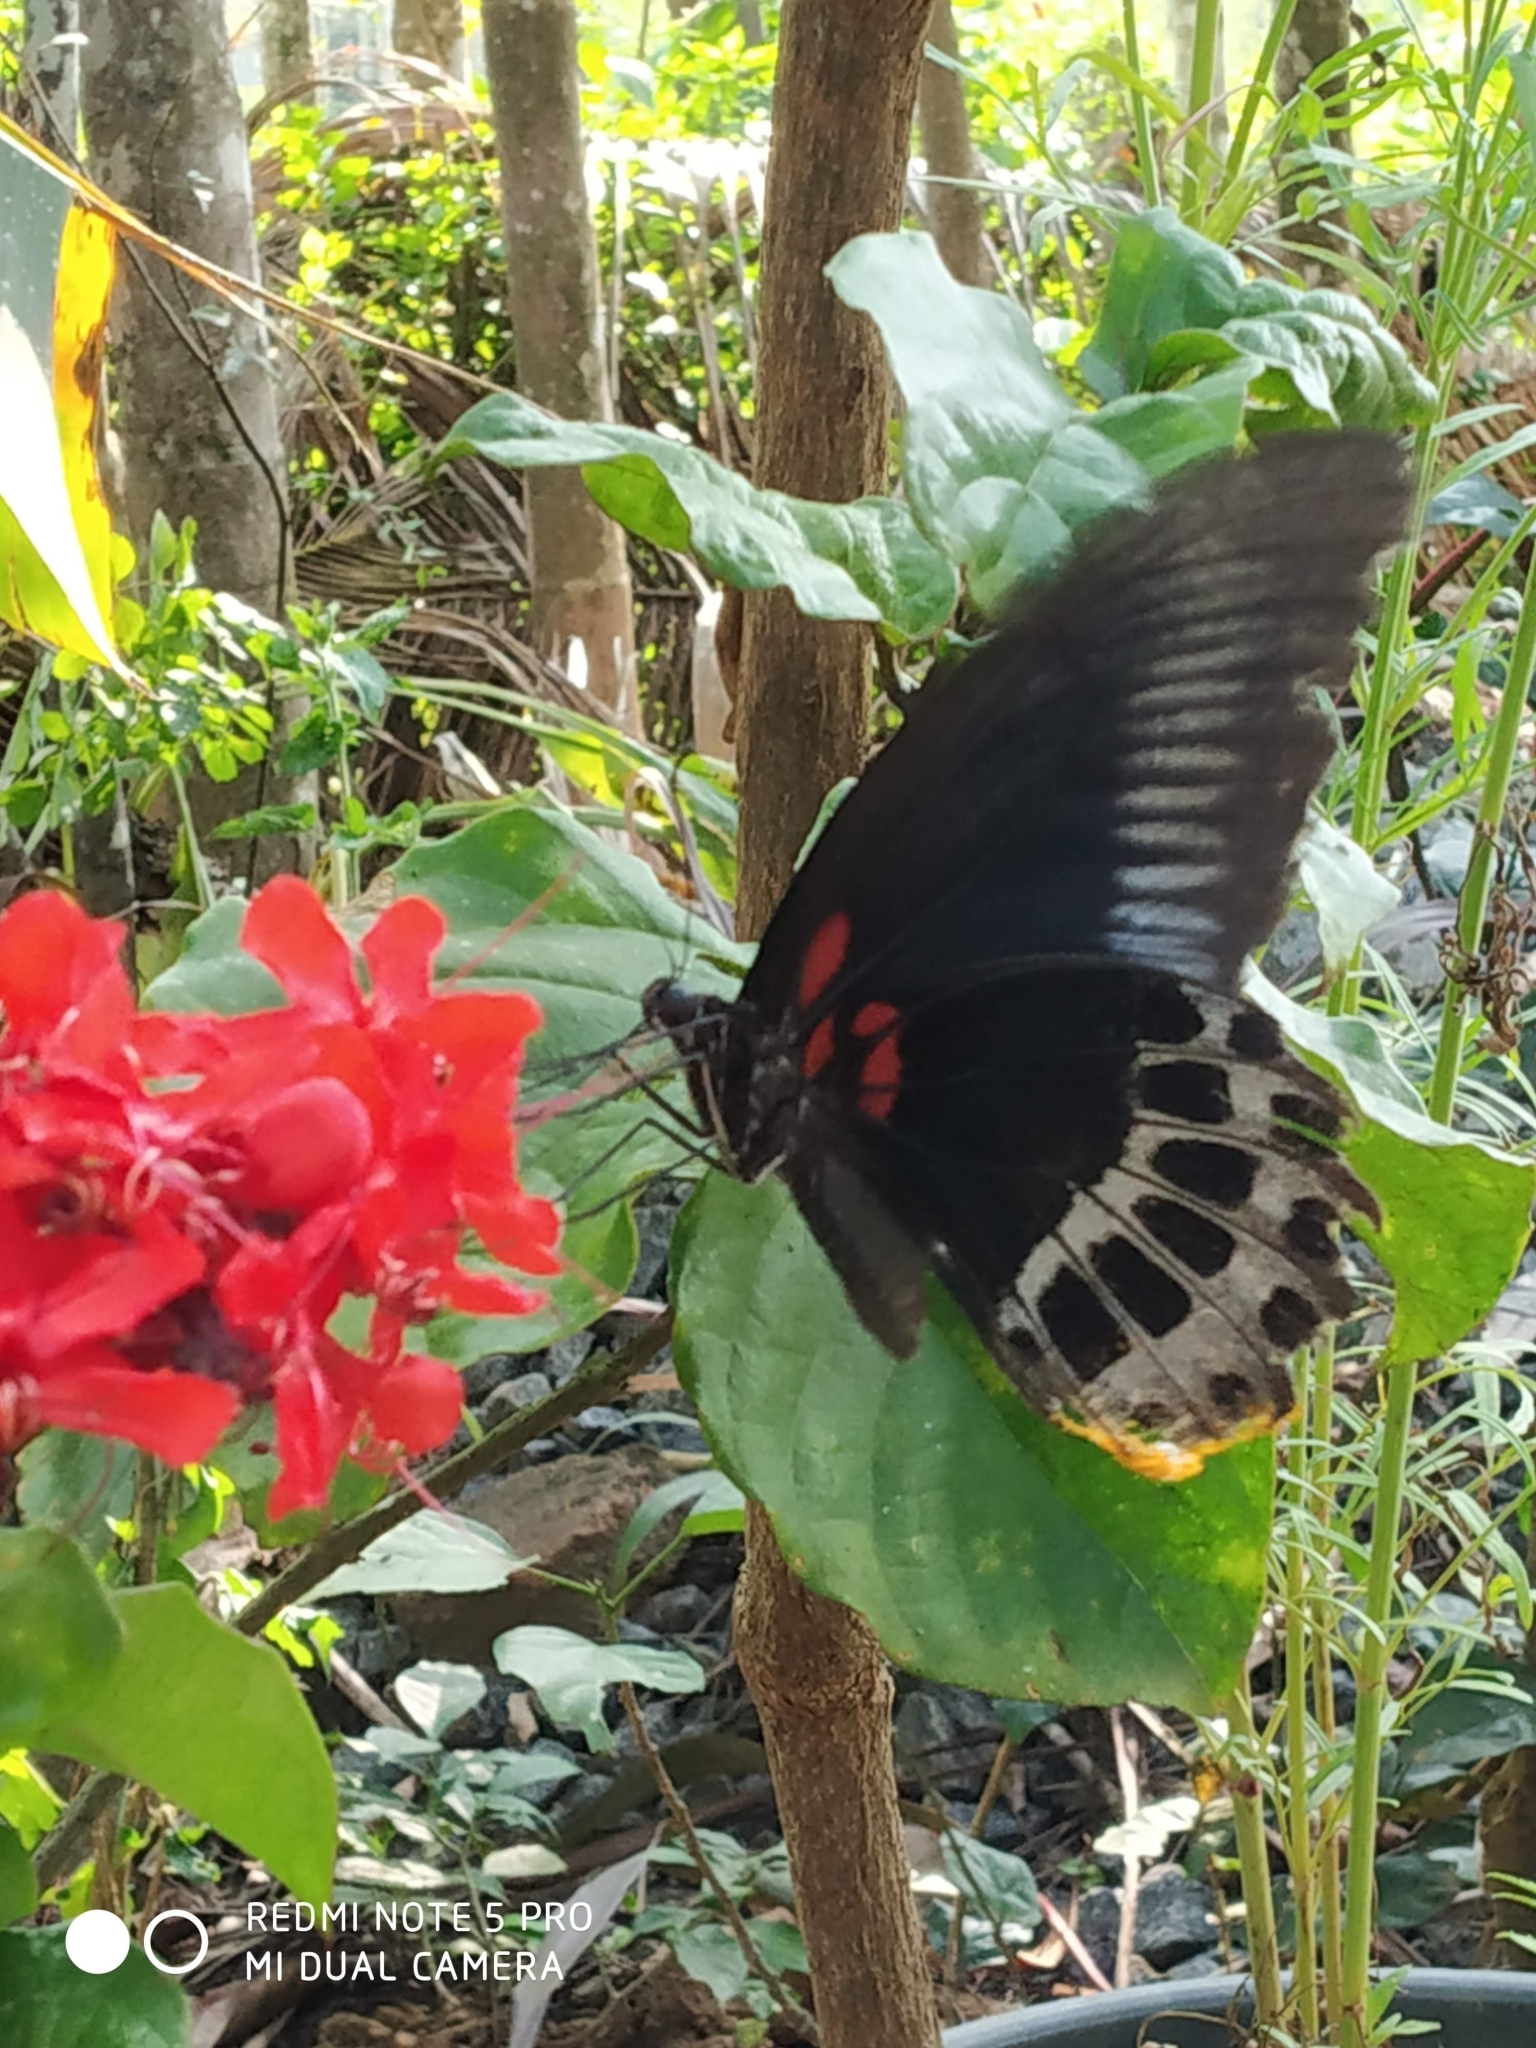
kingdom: Animalia
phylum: Arthropoda
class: Insecta
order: Lepidoptera
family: Papilionidae
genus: Papilio
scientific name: Papilio memnon
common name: Great mormon
